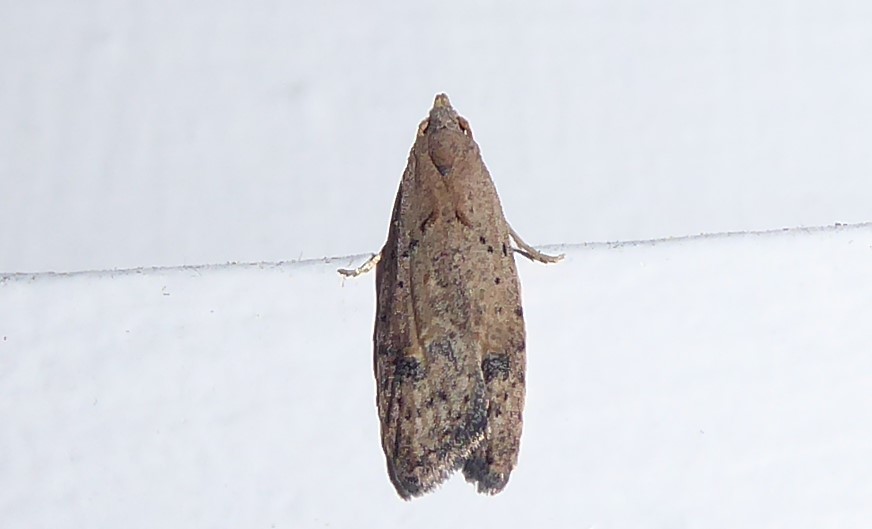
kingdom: Animalia
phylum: Arthropoda
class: Insecta
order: Lepidoptera
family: Carposinidae
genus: Carposina
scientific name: Carposina rubophaga
